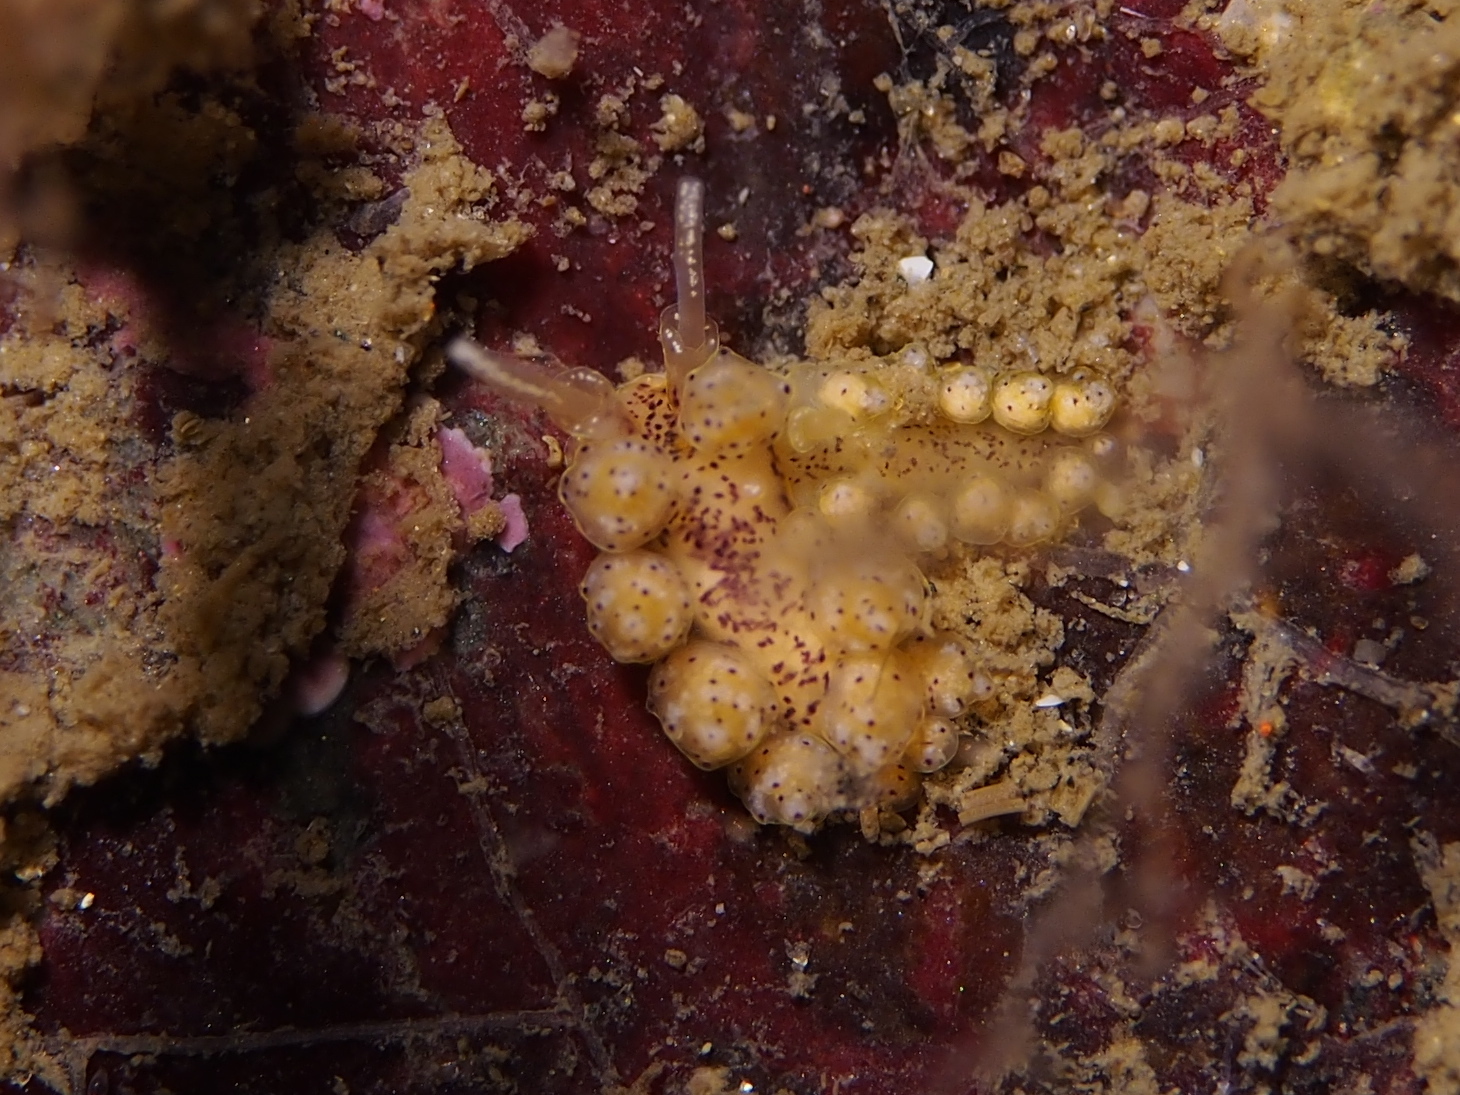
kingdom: Animalia
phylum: Mollusca
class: Gastropoda
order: Nudibranchia
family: Dotidae
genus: Doto
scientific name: Doto dunnei
